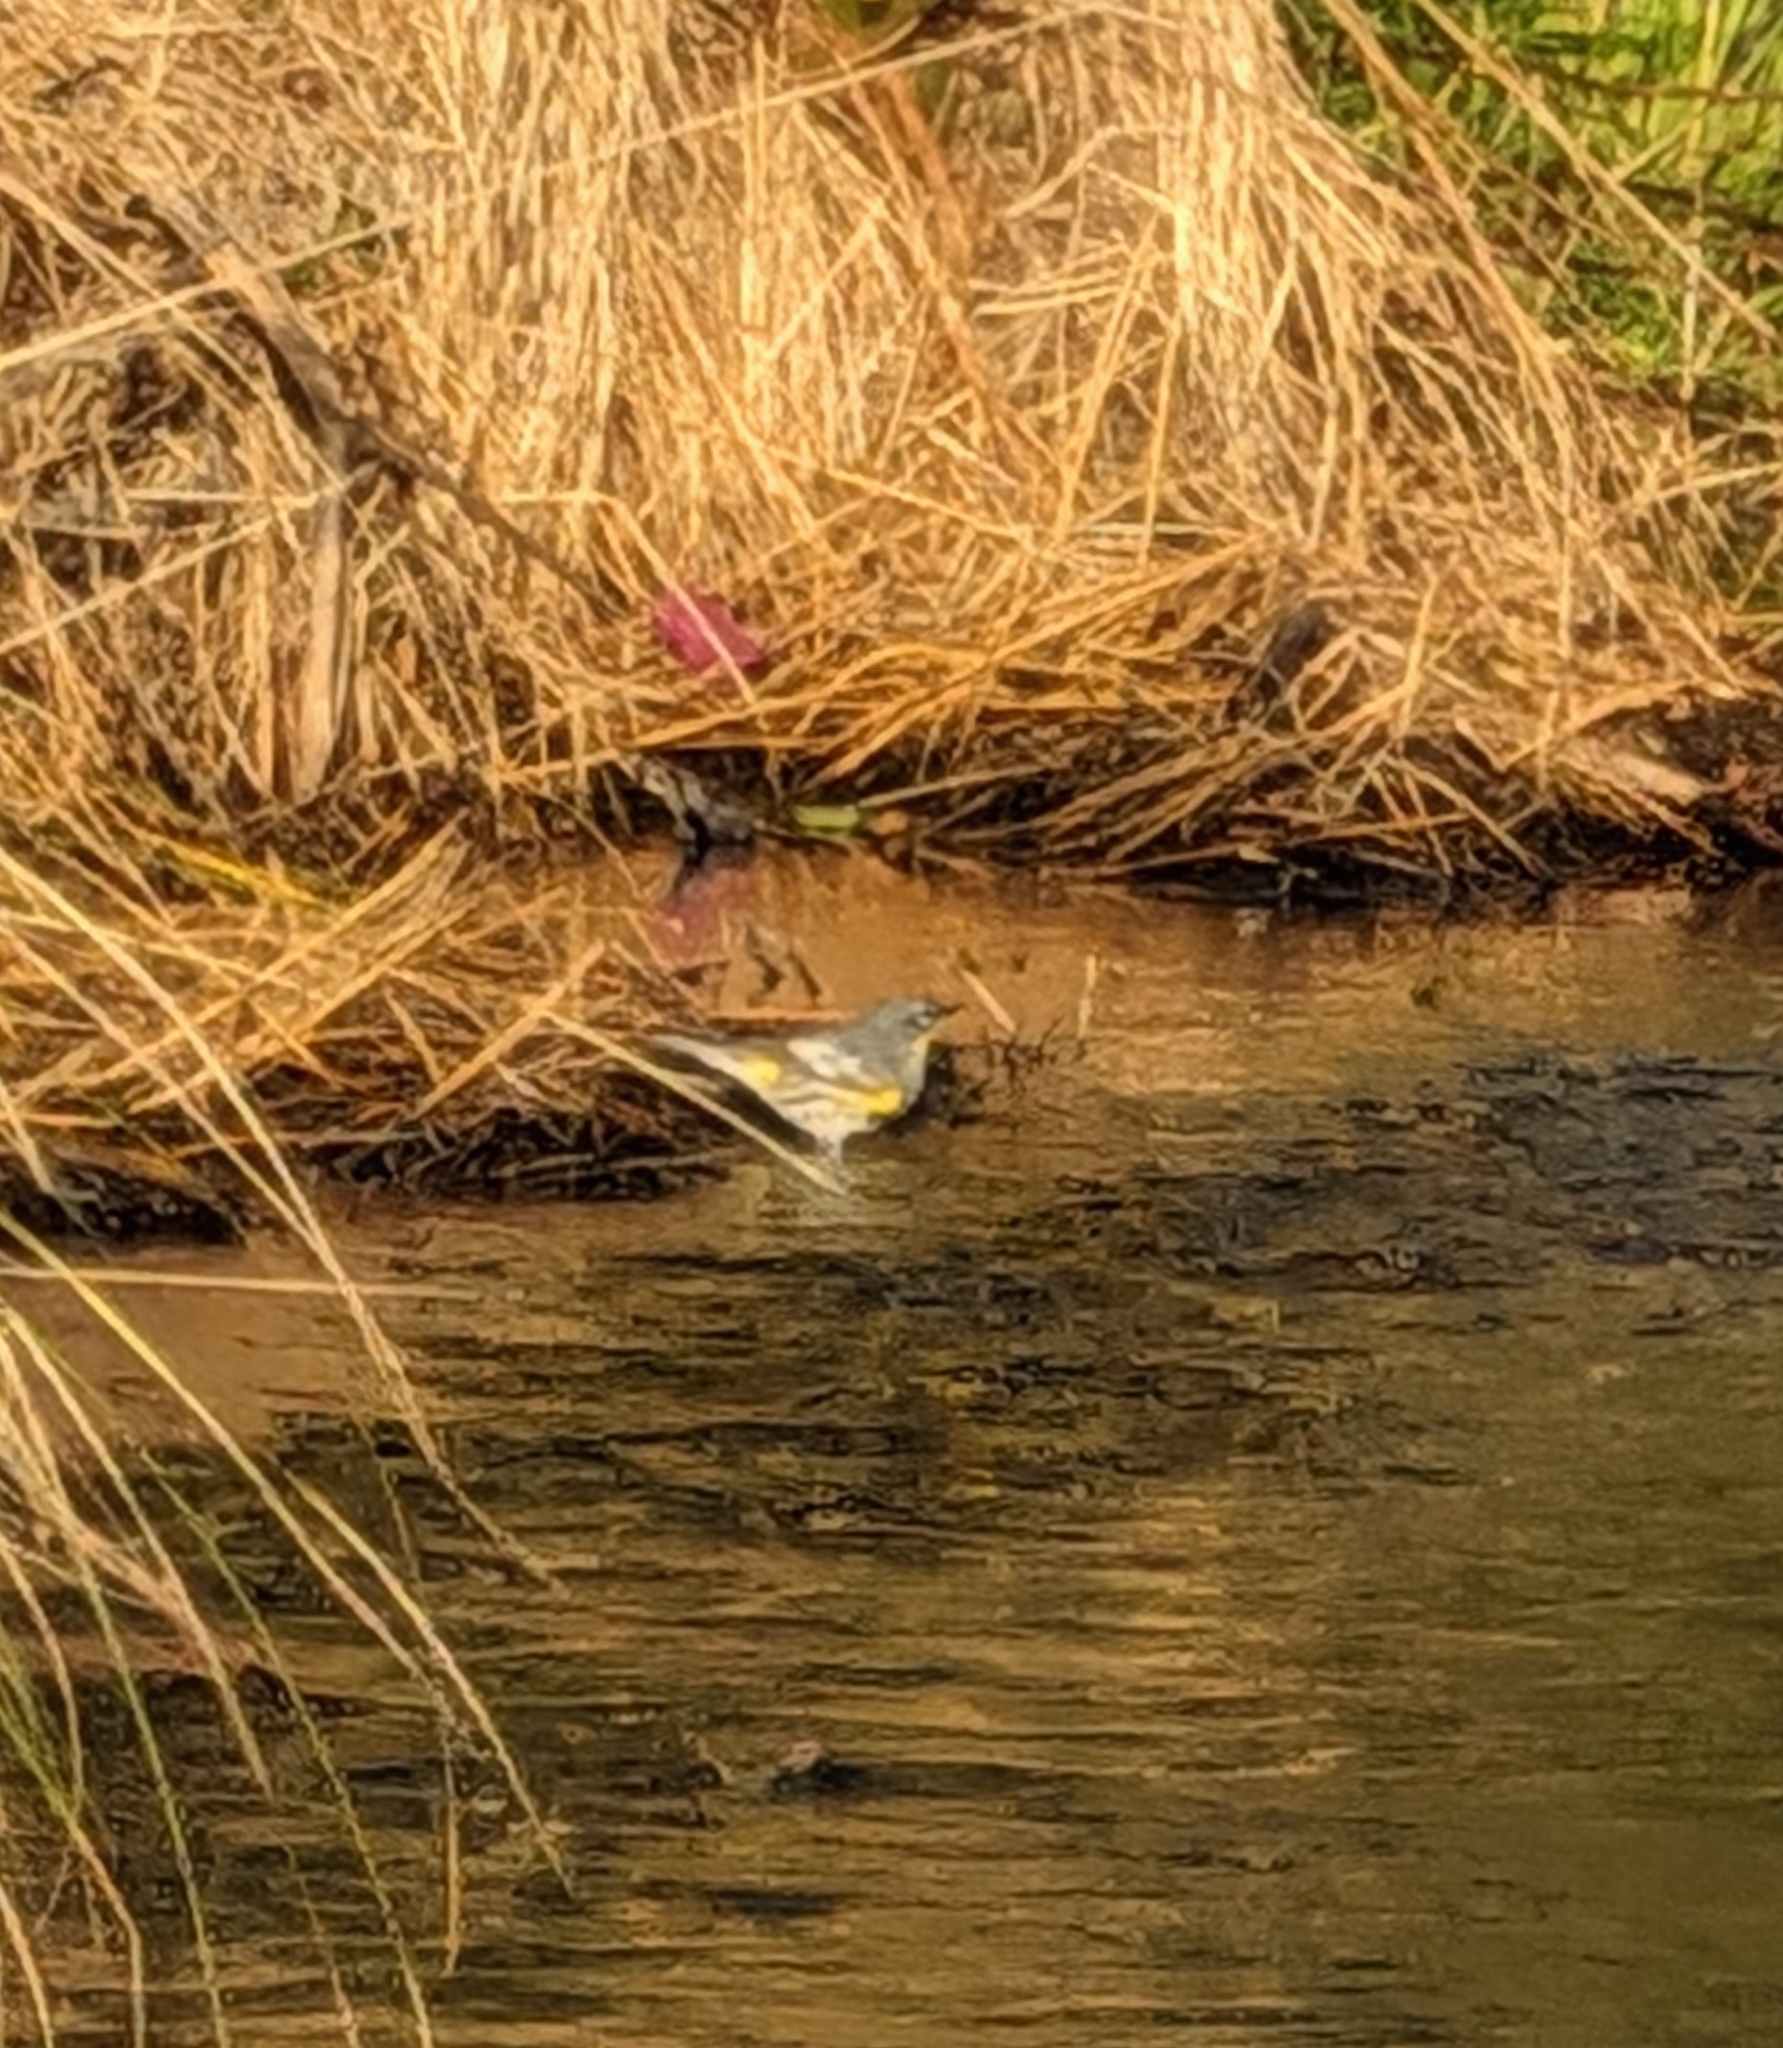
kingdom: Animalia
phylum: Chordata
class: Aves
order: Passeriformes
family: Parulidae
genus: Setophaga
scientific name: Setophaga coronata
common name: Myrtle warbler
